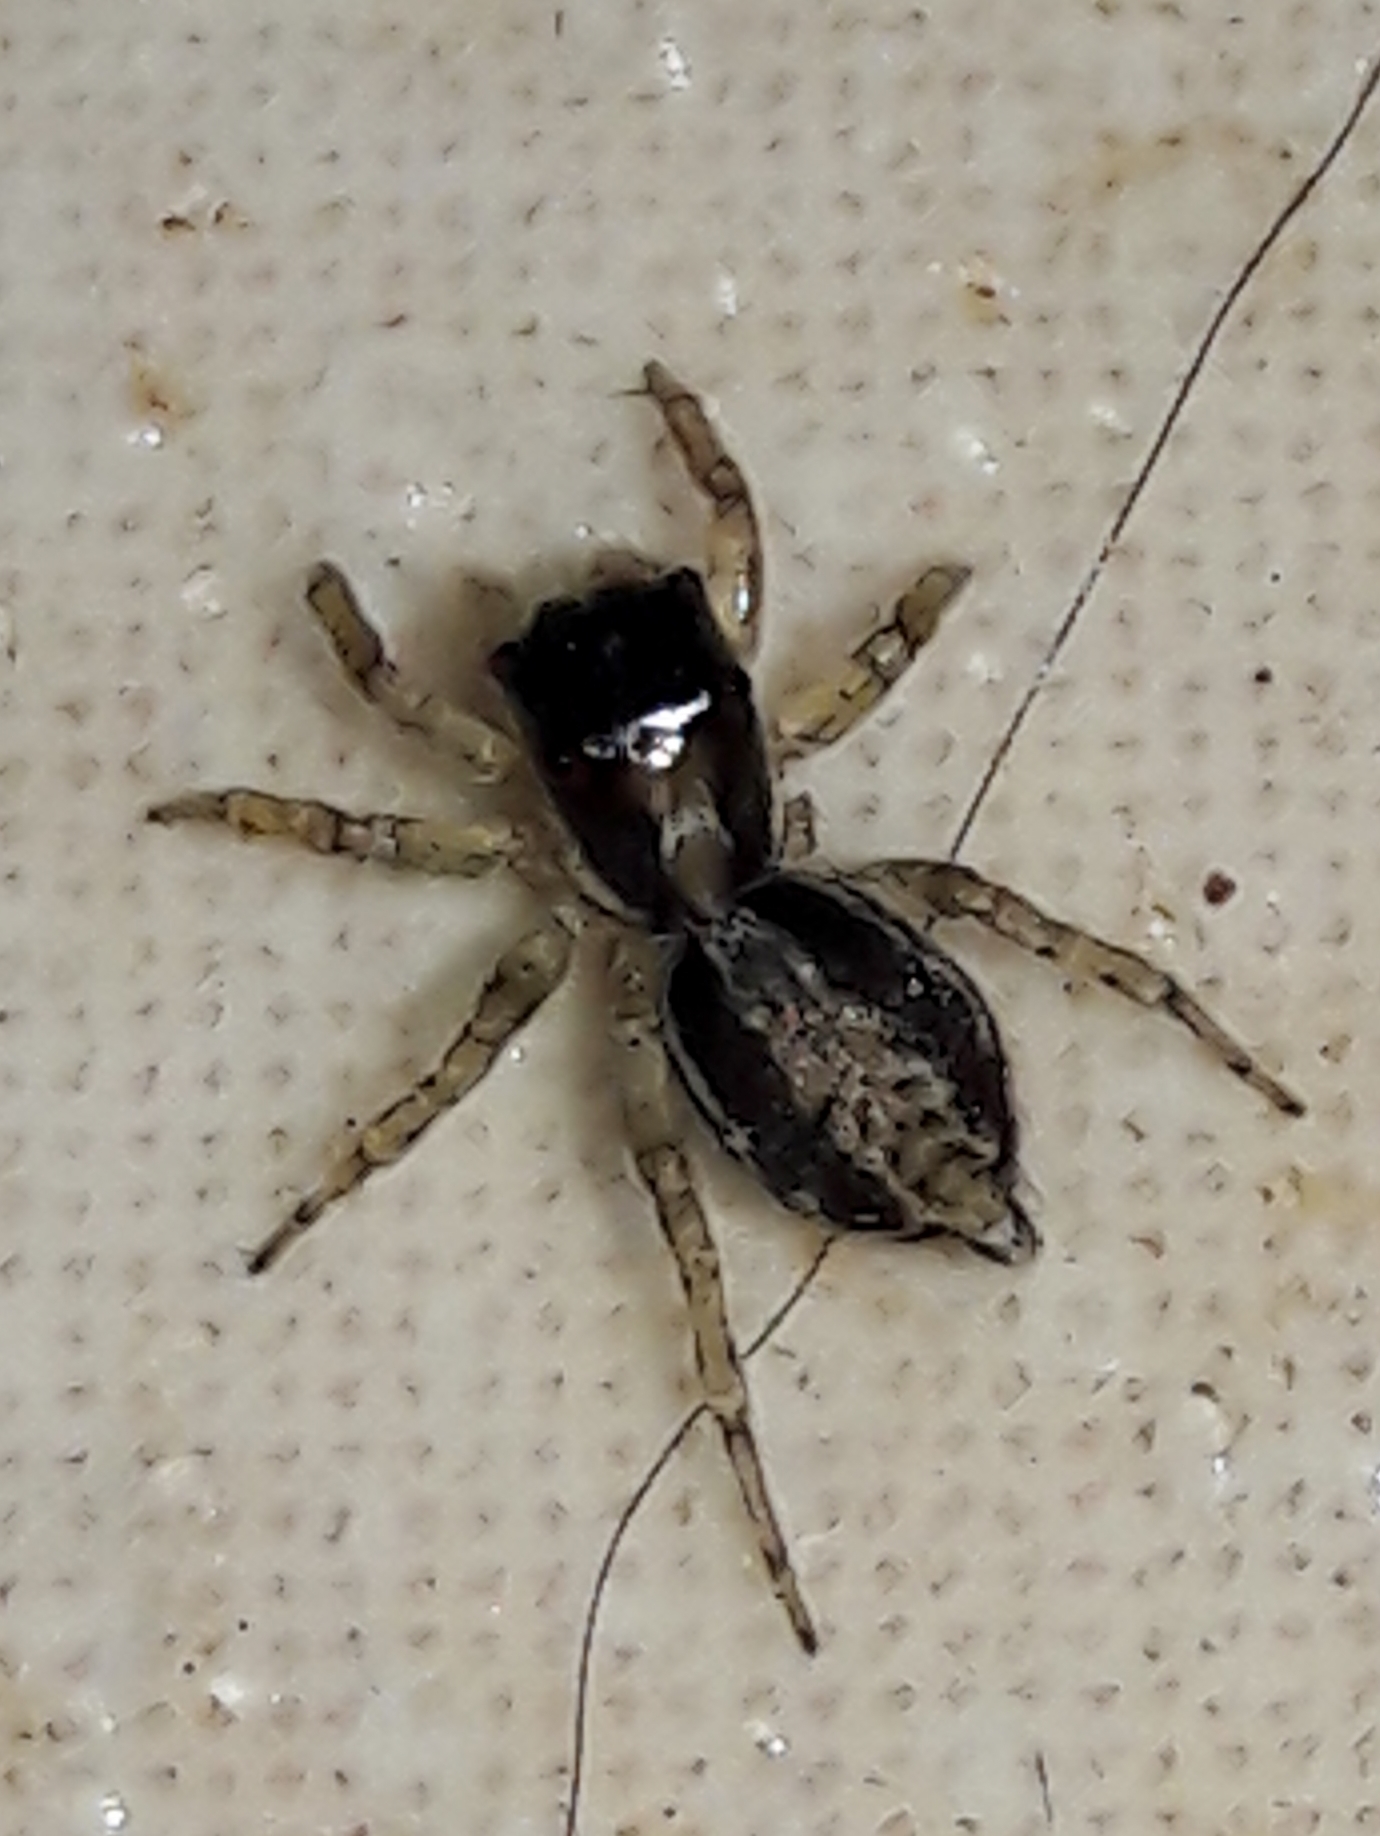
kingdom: Animalia
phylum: Arthropoda
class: Arachnida
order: Araneae
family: Salticidae
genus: Maeota
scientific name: Maeota dichrura
